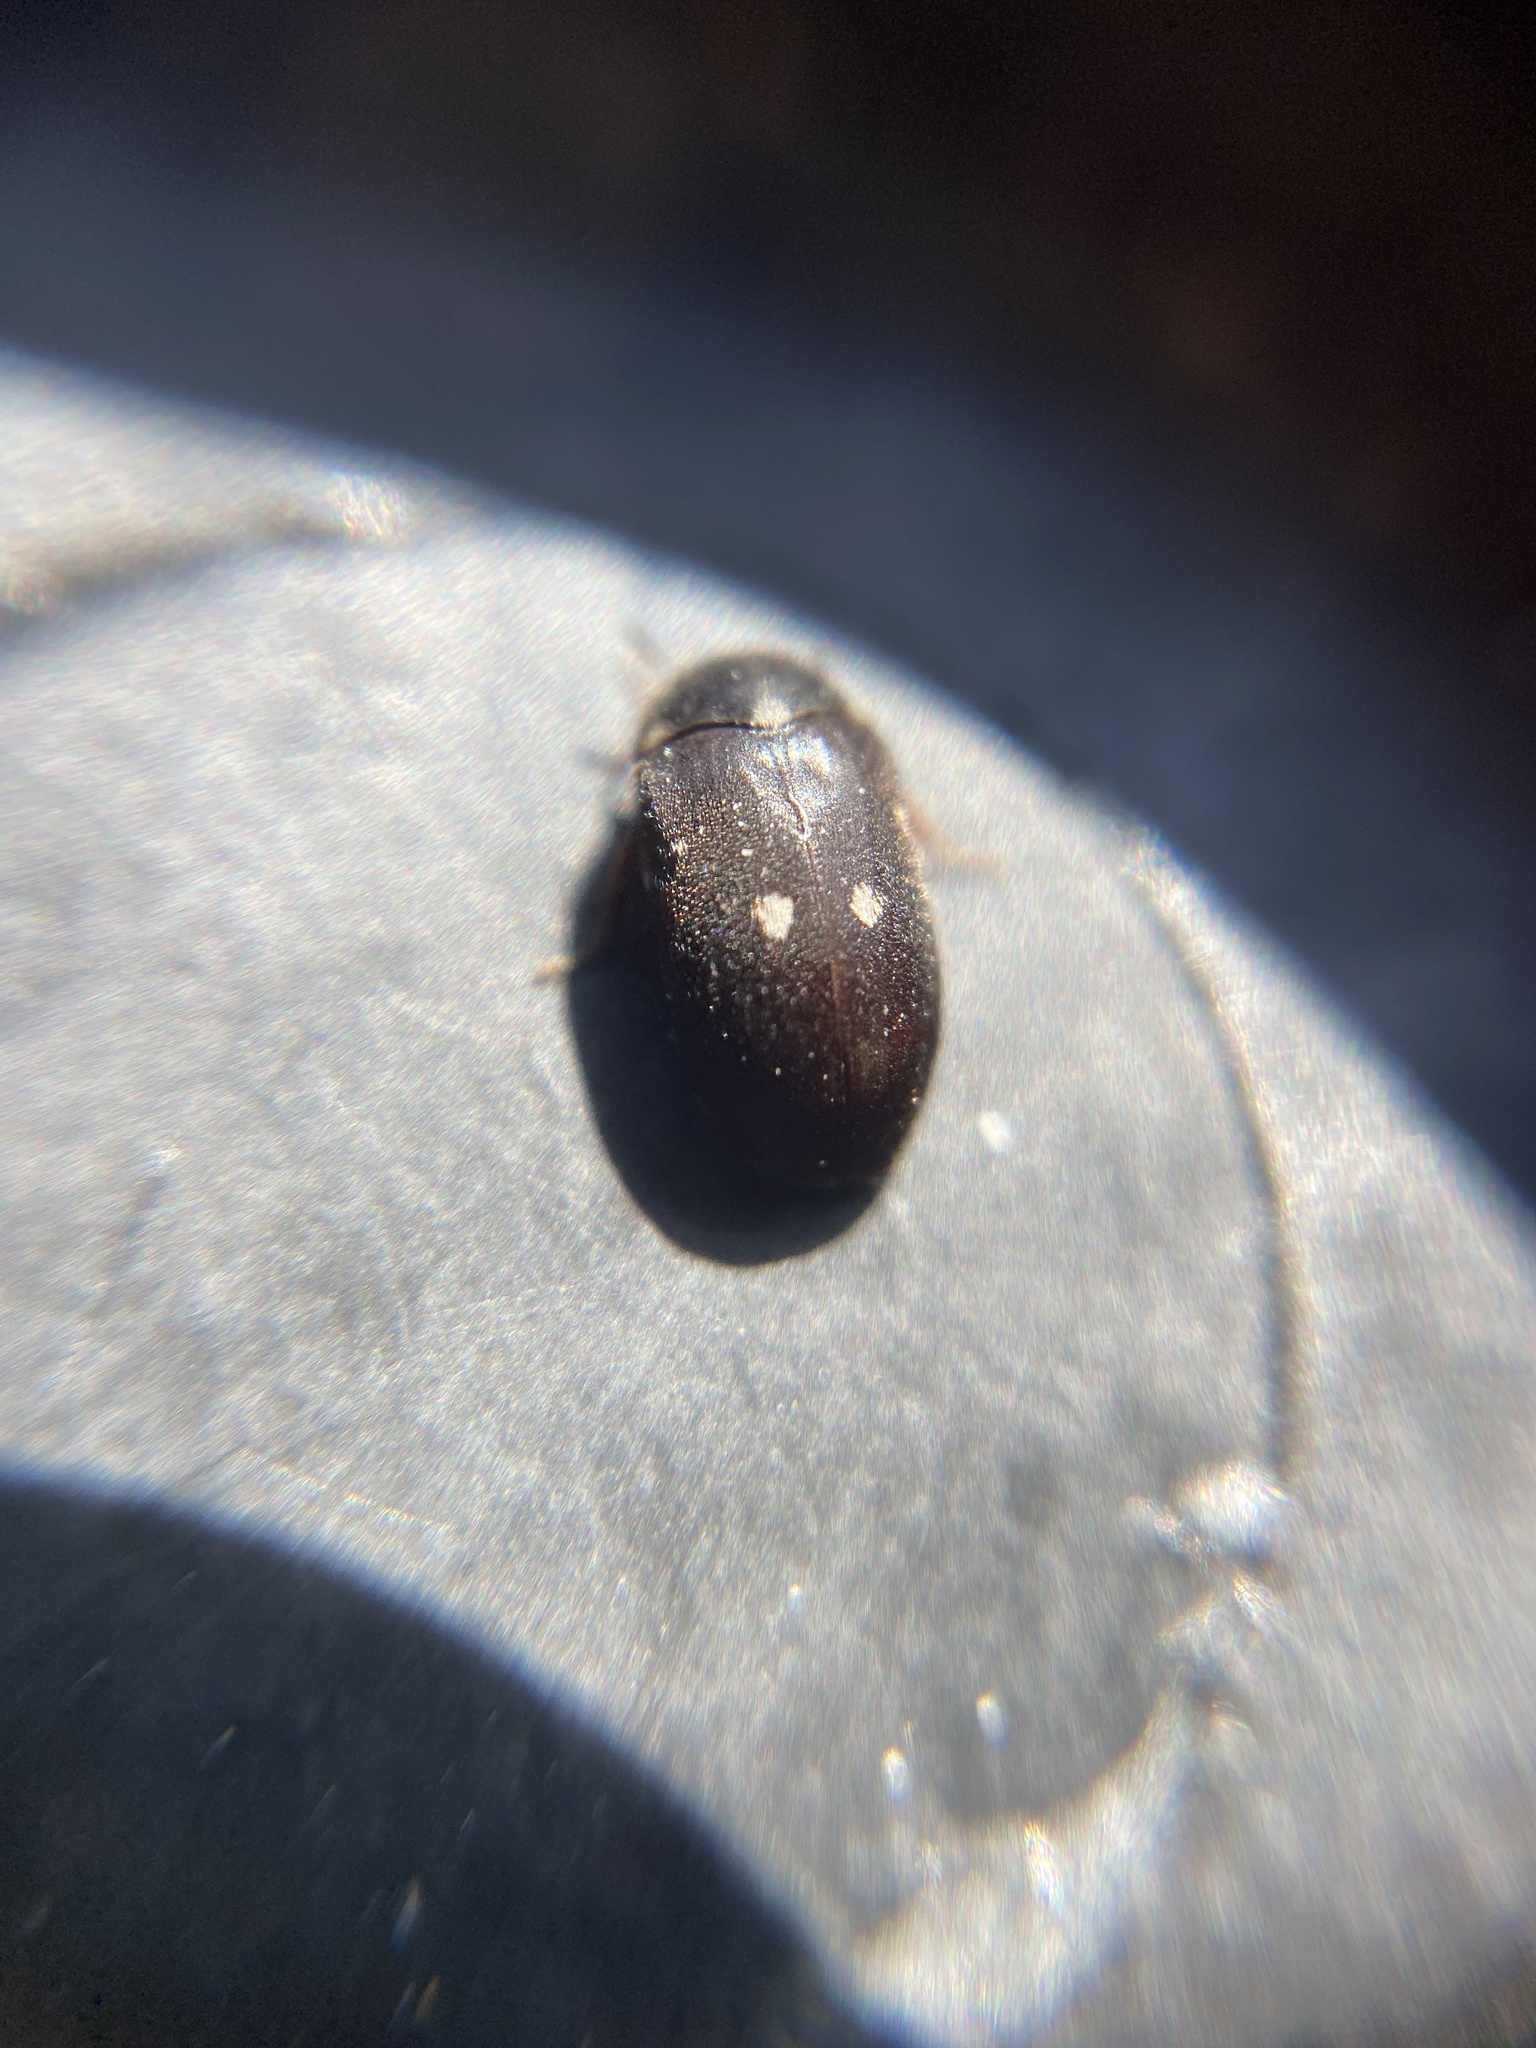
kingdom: Animalia
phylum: Arthropoda
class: Insecta
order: Coleoptera
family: Dermestidae
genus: Attagenus
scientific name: Attagenus pellio
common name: Two-spotted carpet beetle
